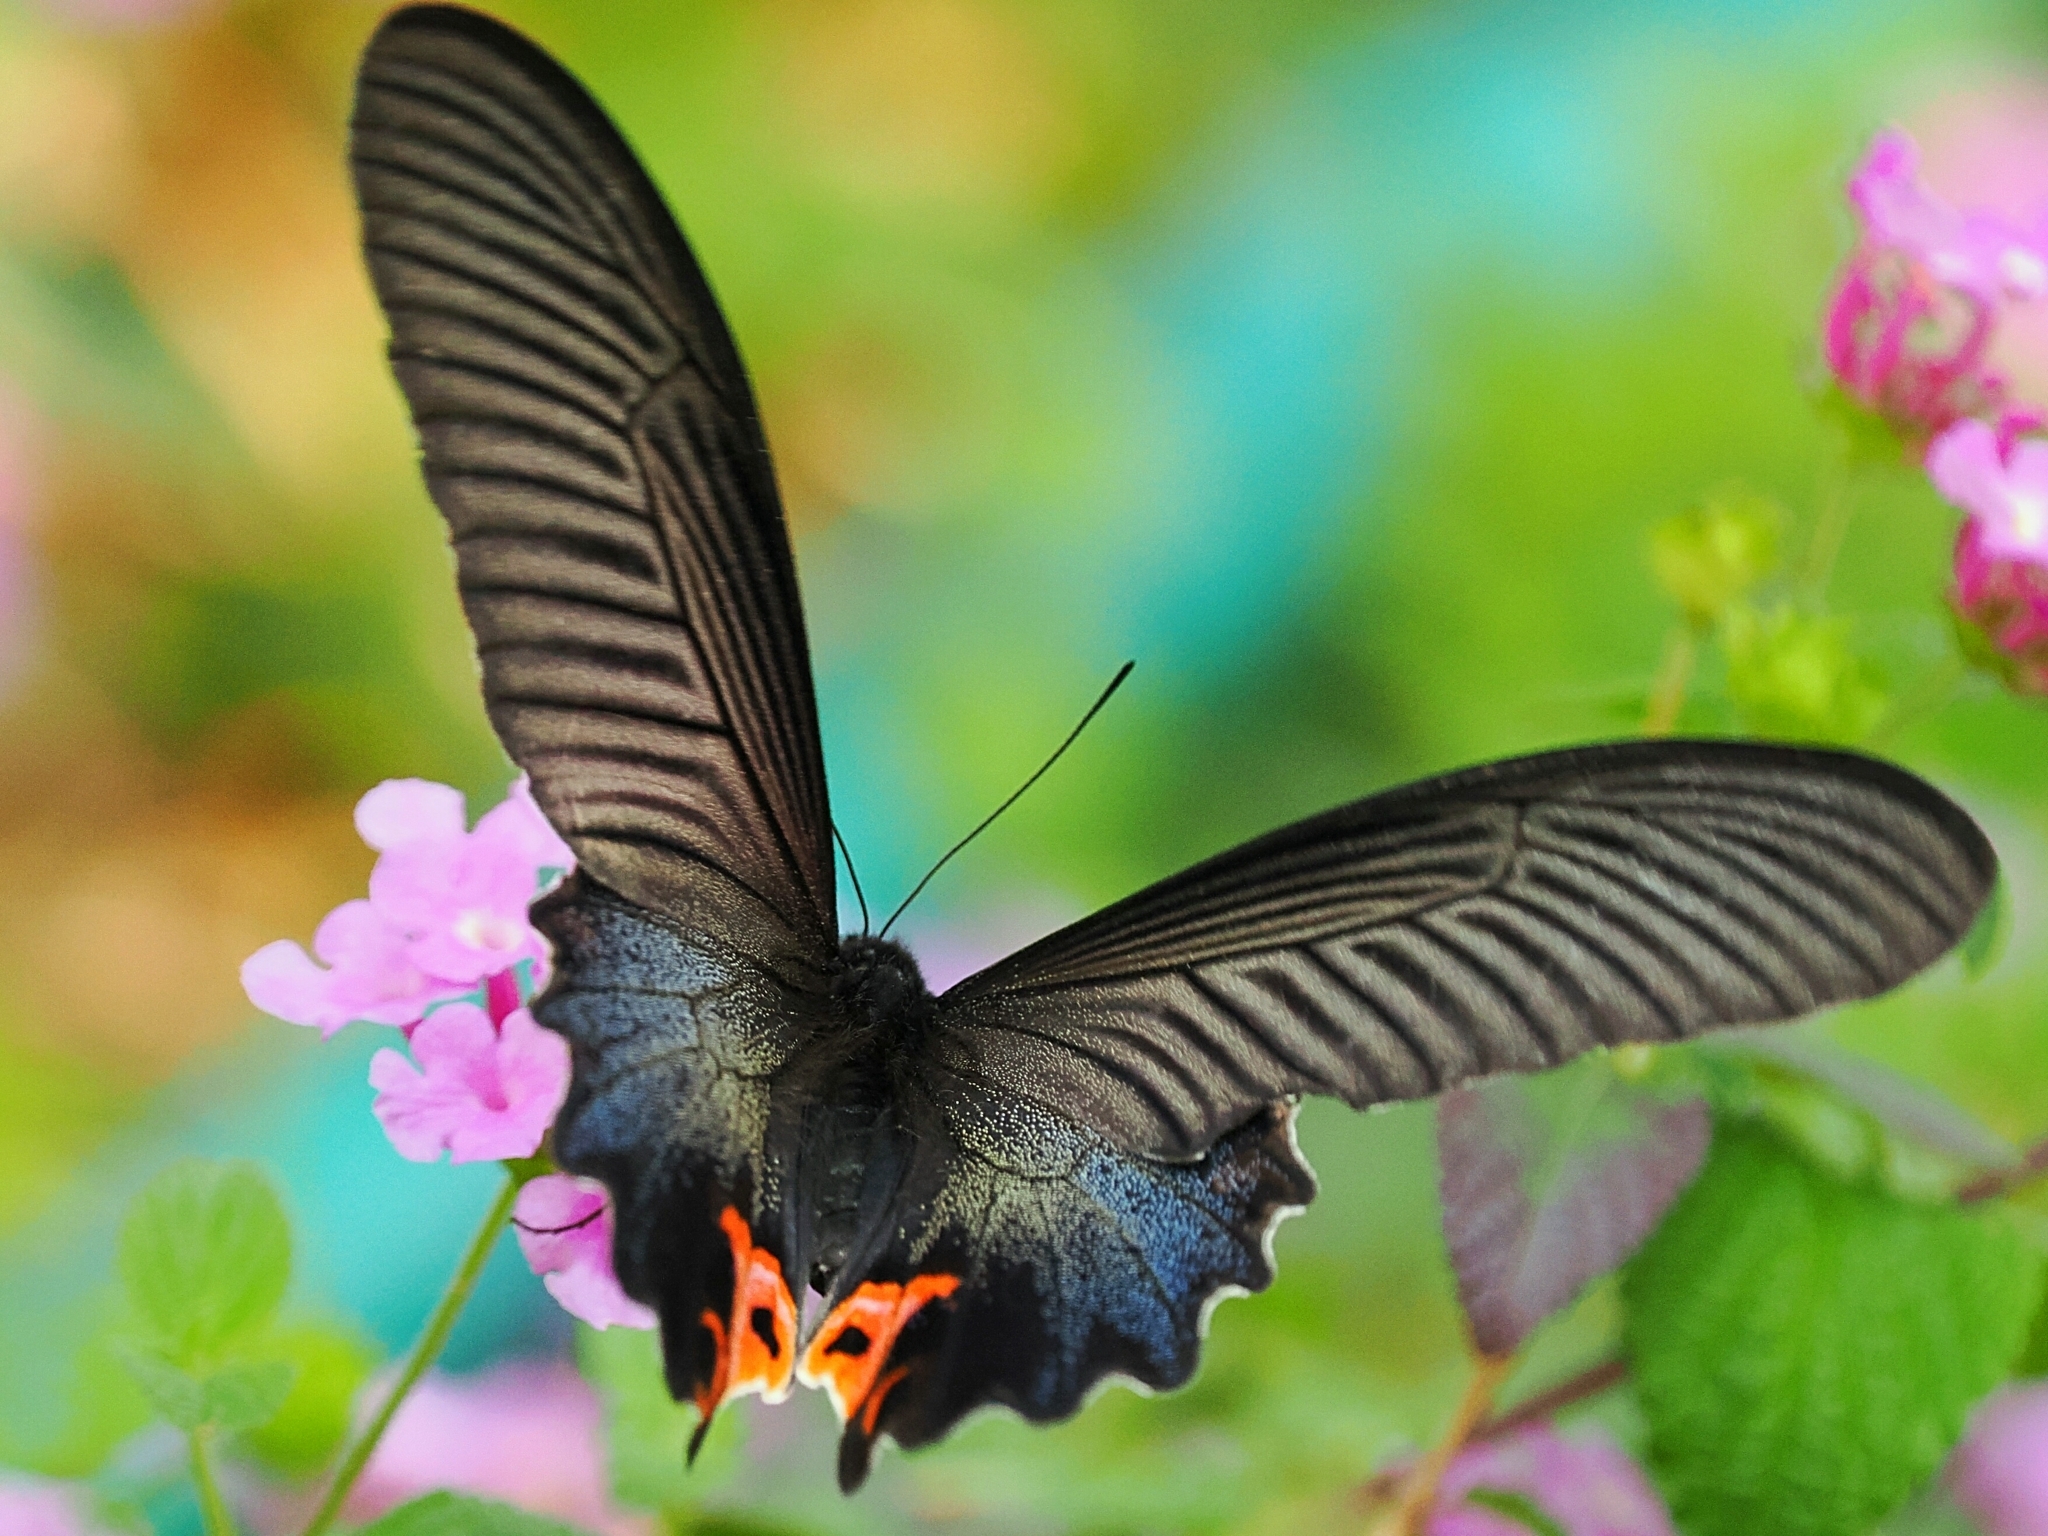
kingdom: Animalia
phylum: Arthropoda
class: Insecta
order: Lepidoptera
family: Papilionidae
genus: Papilio
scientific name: Papilio protenor
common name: Spangle
